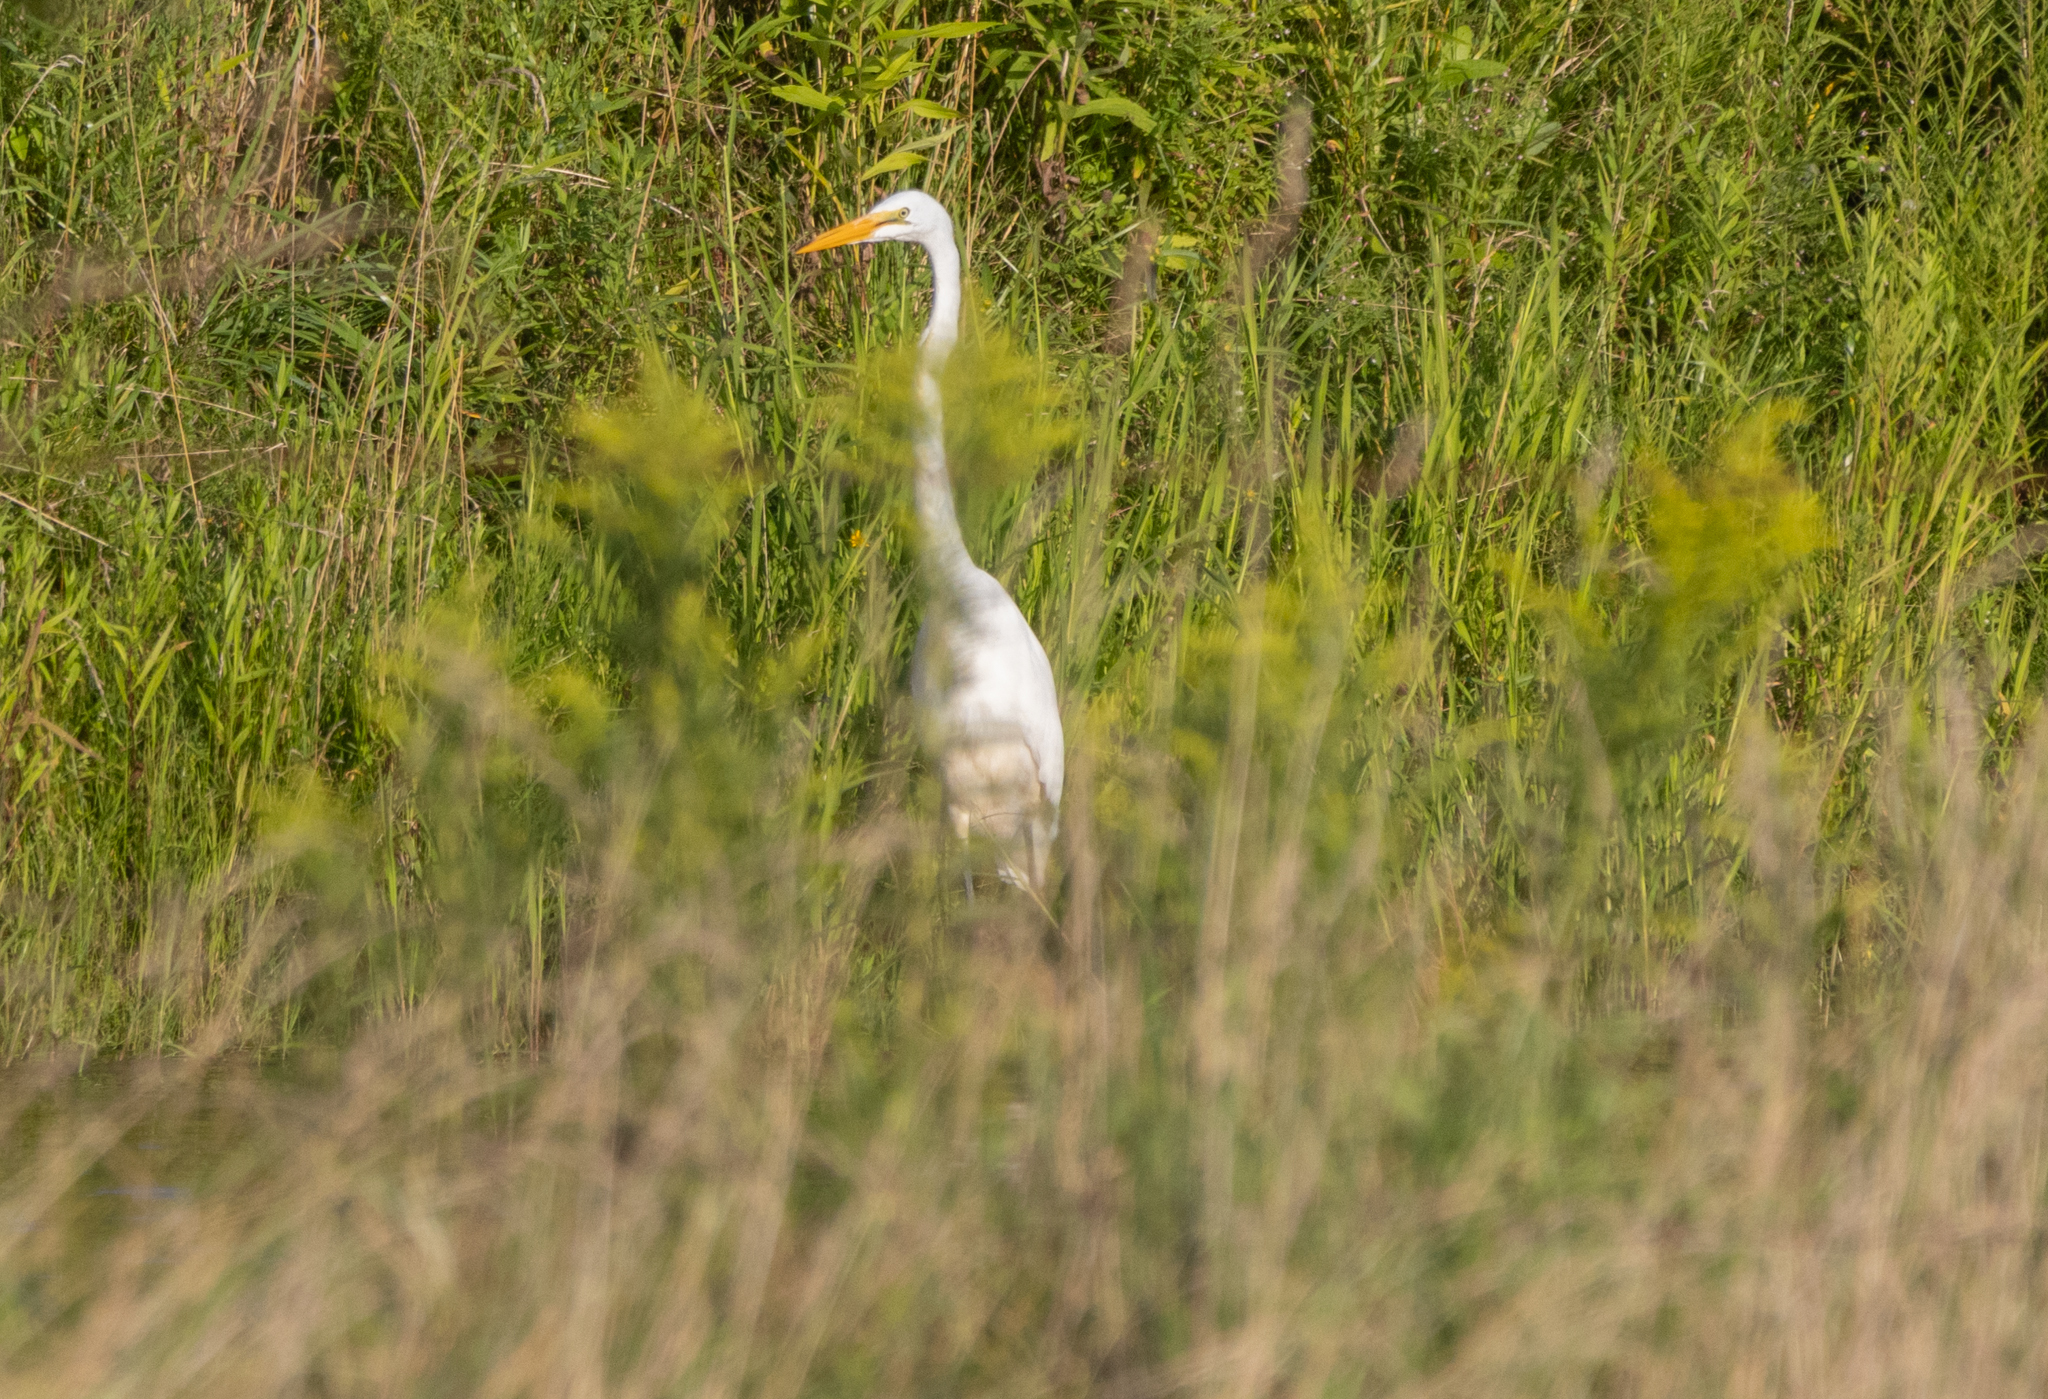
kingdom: Animalia
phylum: Chordata
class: Aves
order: Pelecaniformes
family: Ardeidae
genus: Ardea
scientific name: Ardea alba
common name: Great egret
